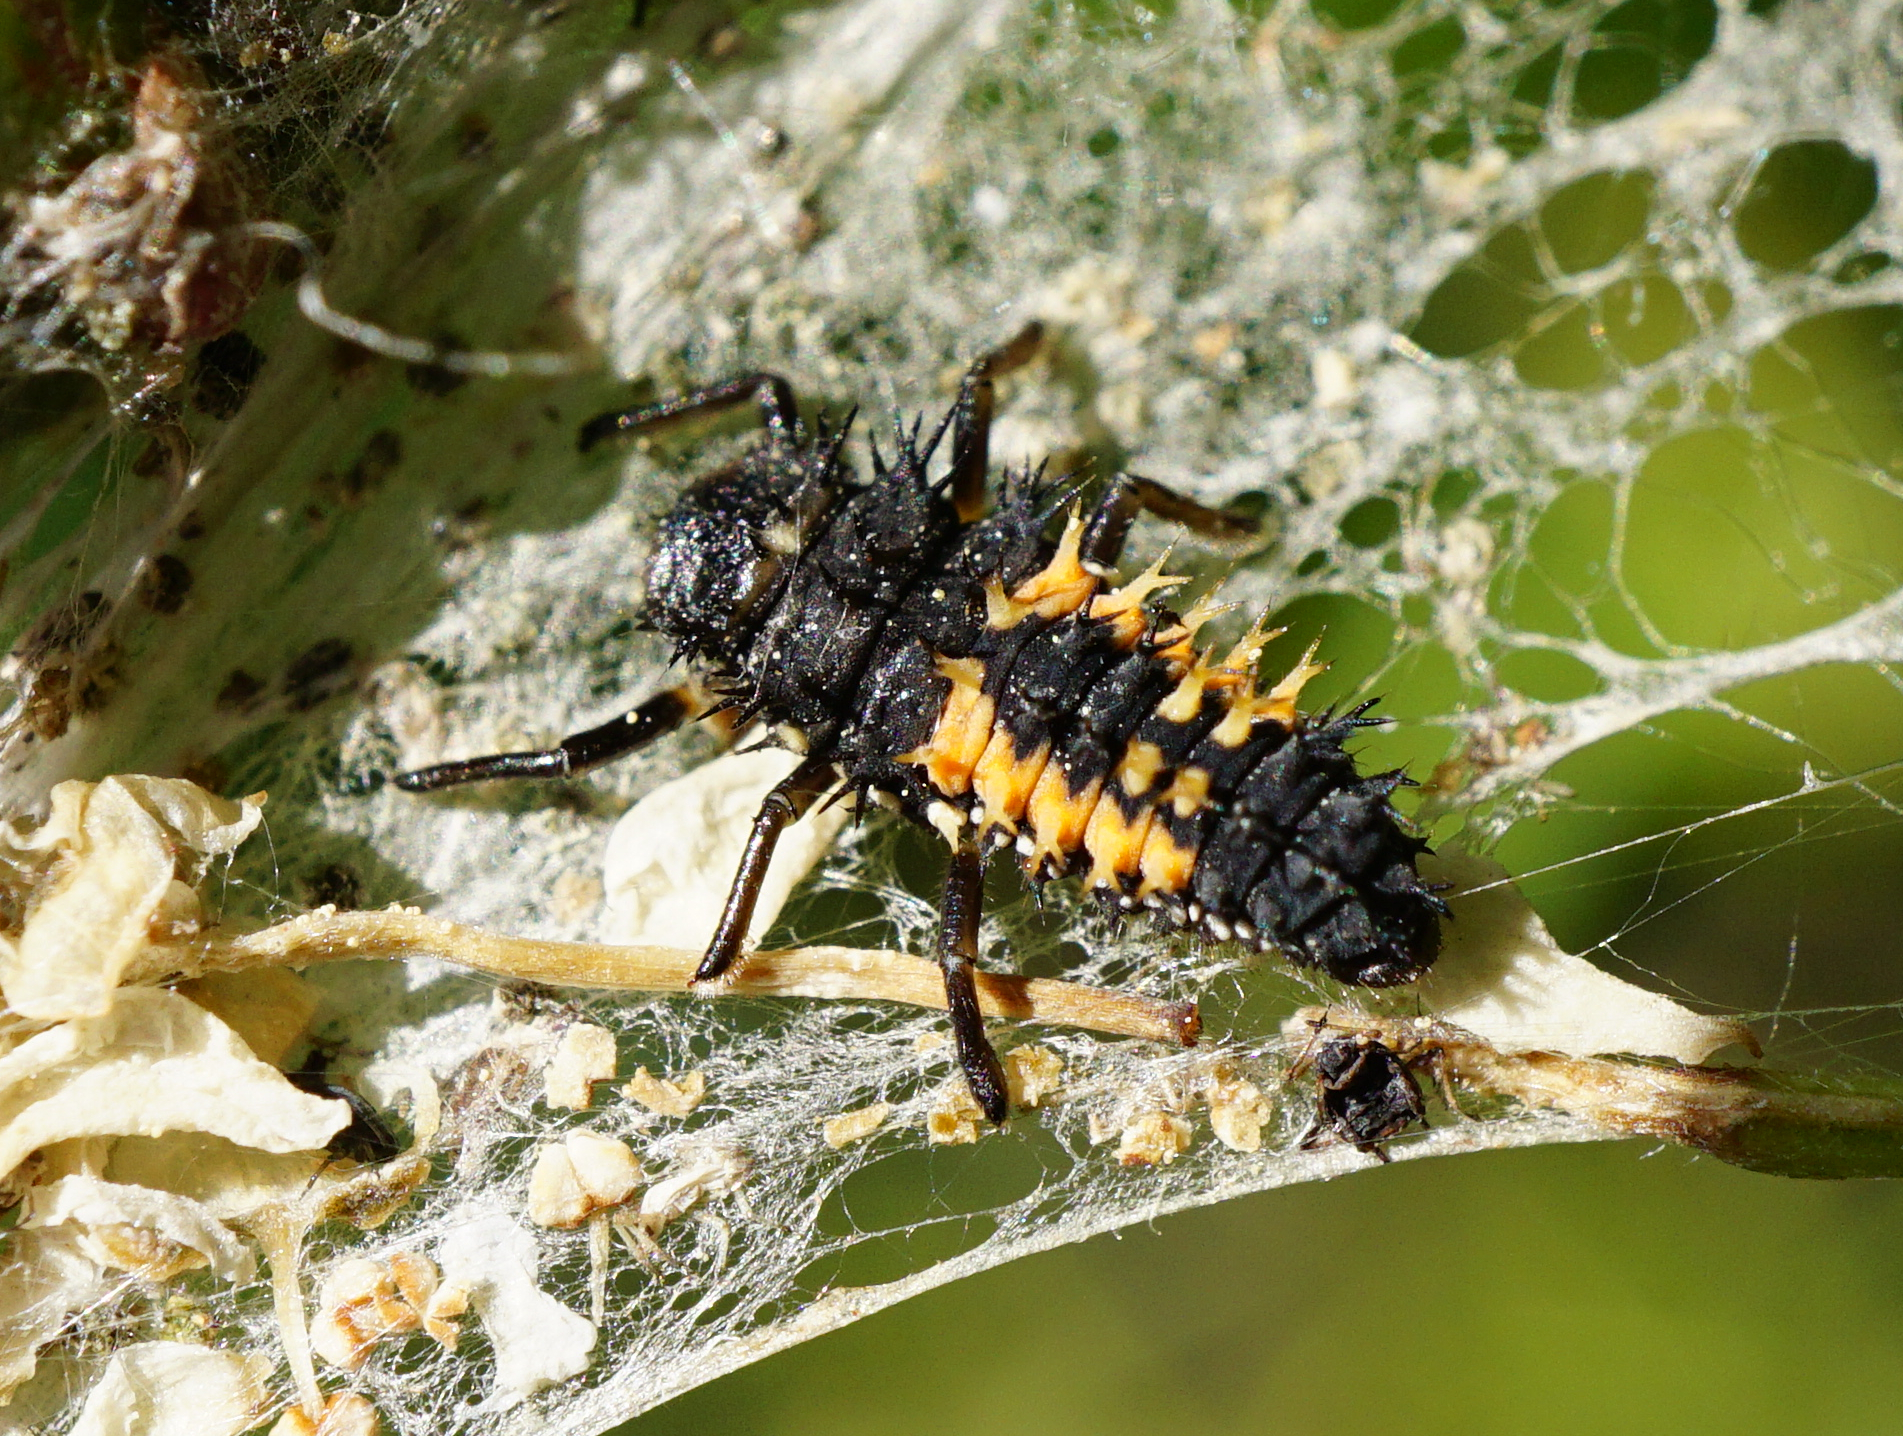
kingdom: Animalia
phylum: Arthropoda
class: Insecta
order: Coleoptera
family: Coccinellidae
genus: Harmonia
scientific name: Harmonia axyridis
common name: Harlequin ladybird
